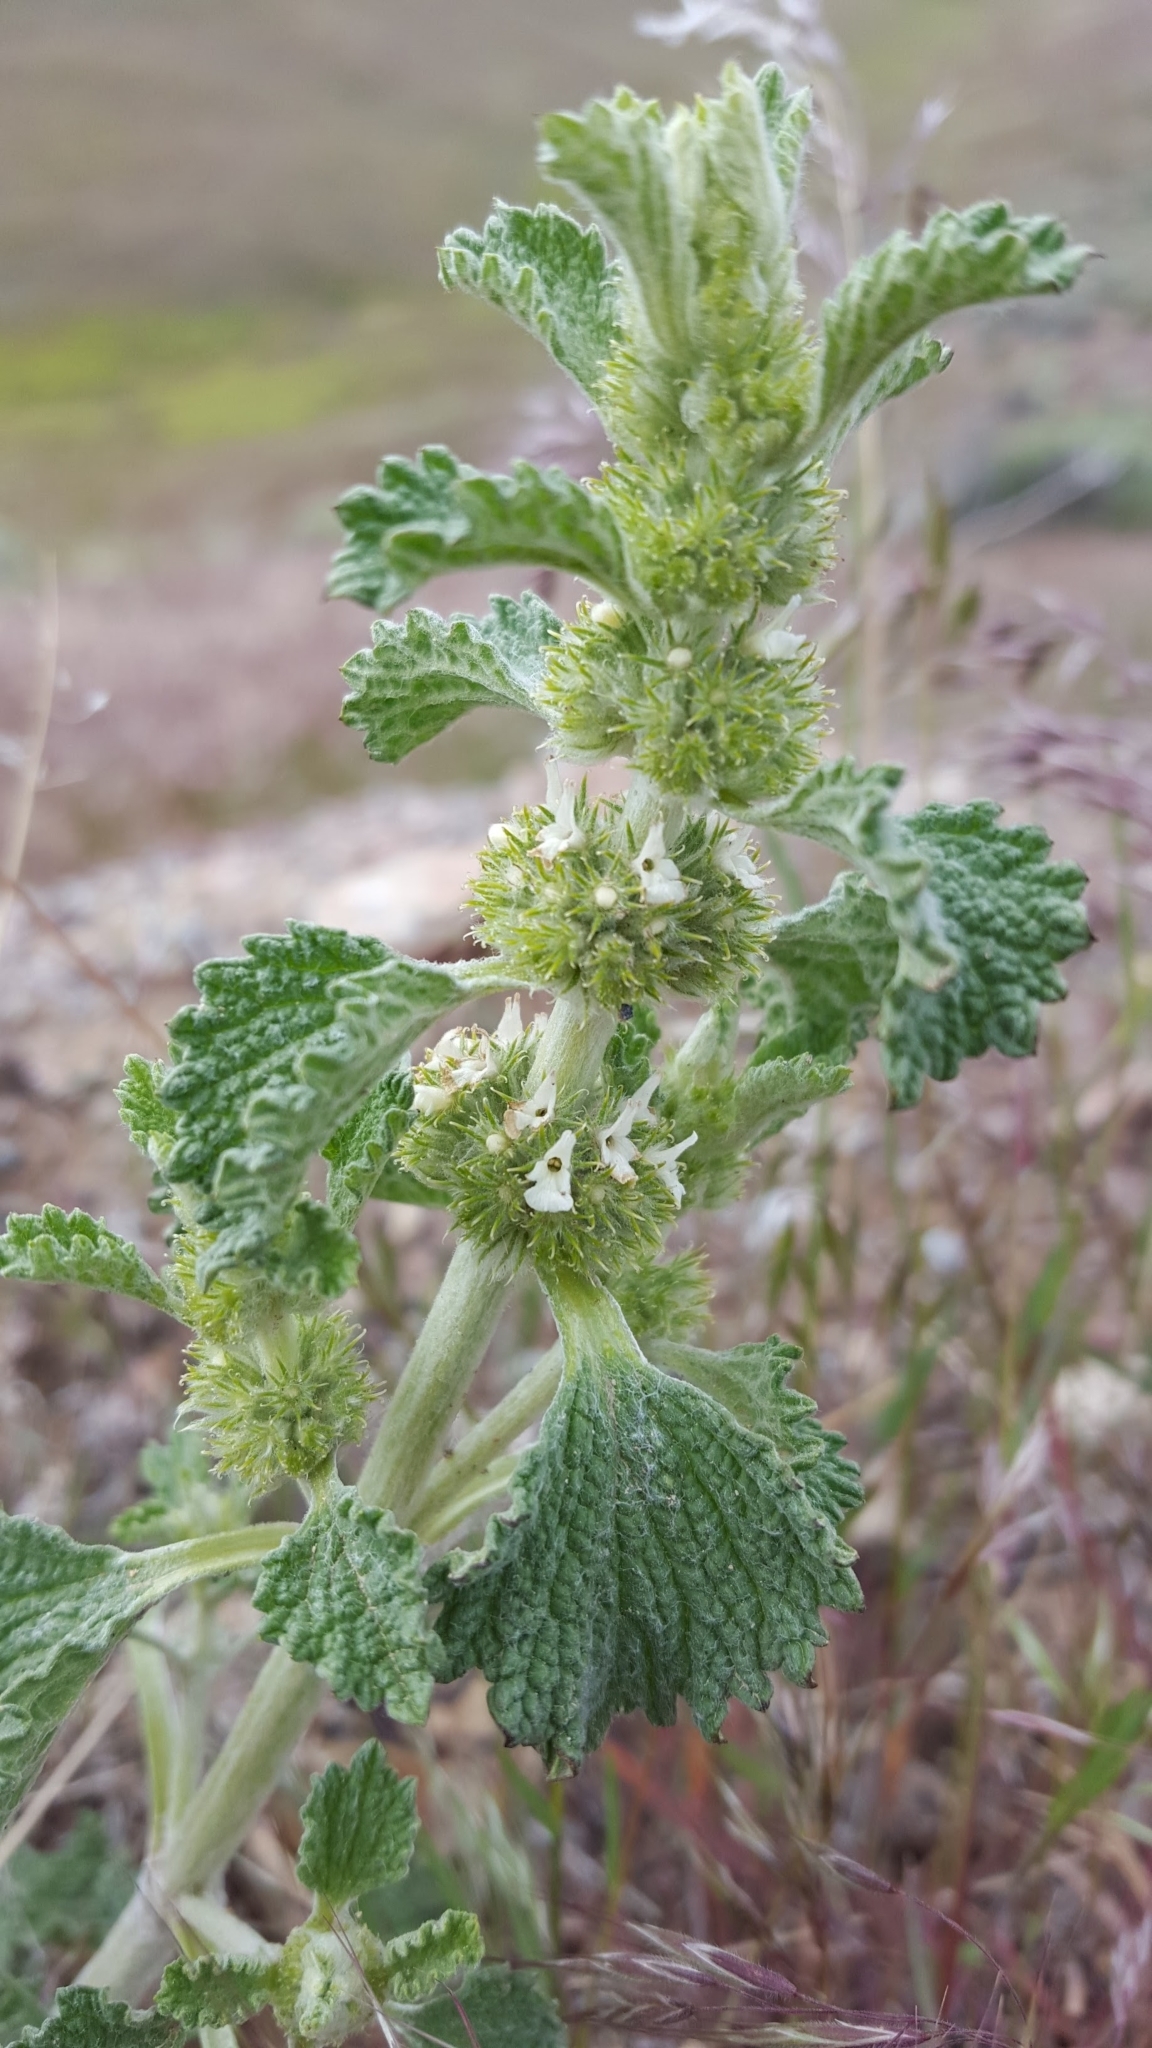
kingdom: Plantae
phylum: Tracheophyta
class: Magnoliopsida
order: Lamiales
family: Lamiaceae
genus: Marrubium
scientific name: Marrubium vulgare
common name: Horehound
